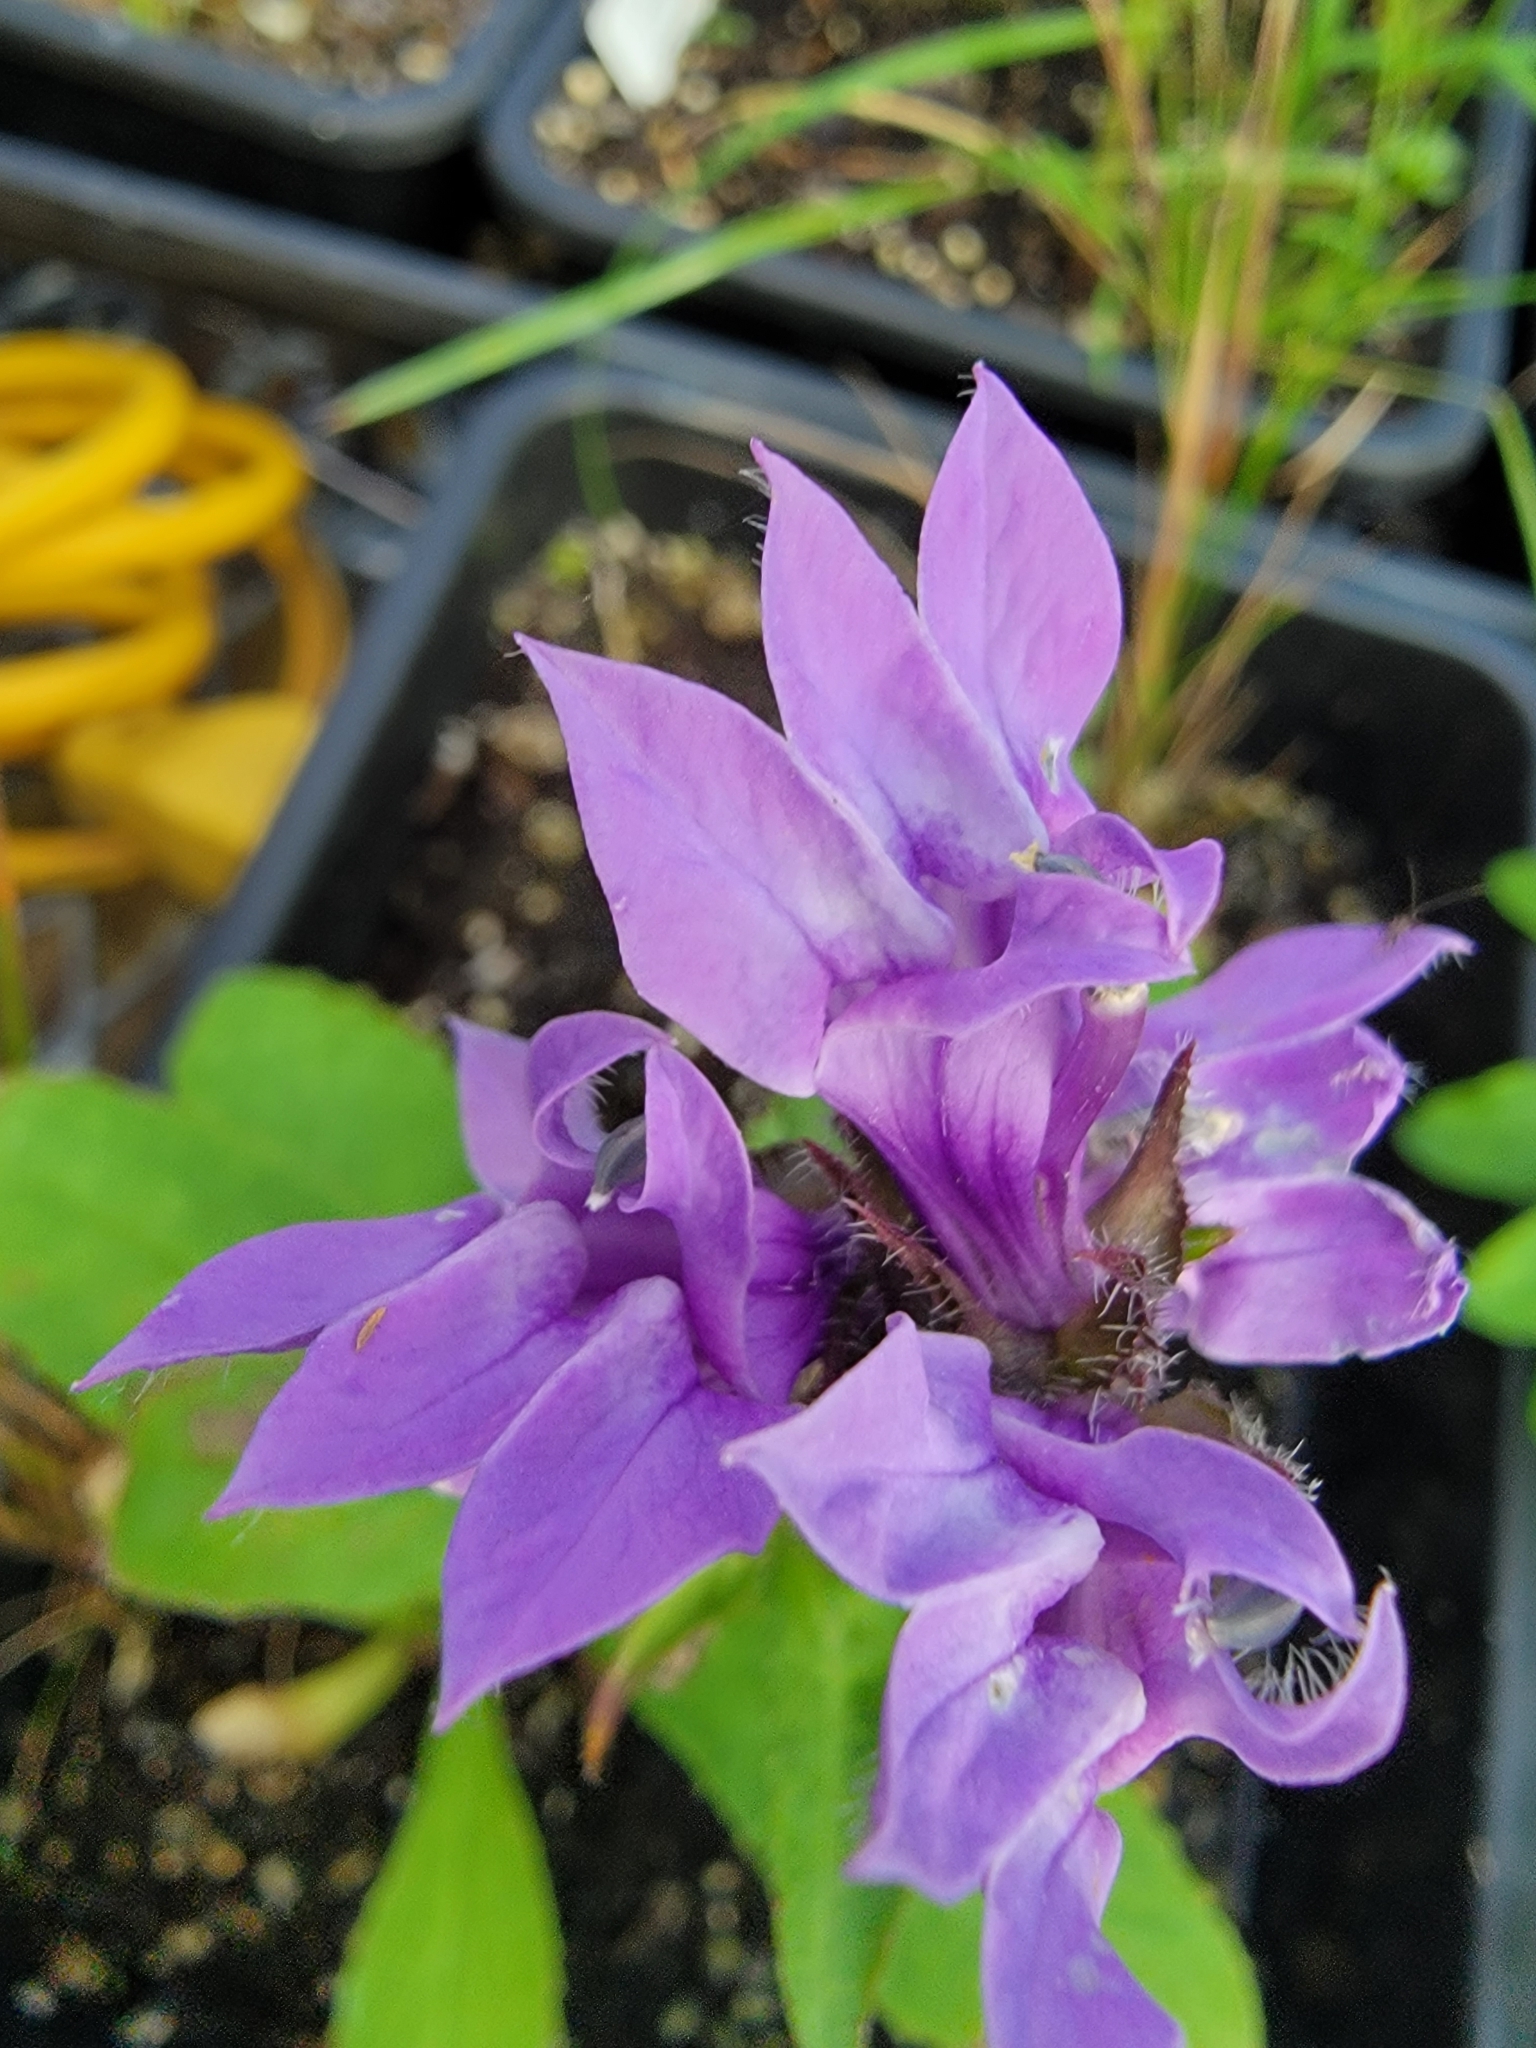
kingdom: Plantae
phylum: Tracheophyta
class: Magnoliopsida
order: Asterales
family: Campanulaceae
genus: Lobelia
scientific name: Lobelia siphilitica
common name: Great lobelia
